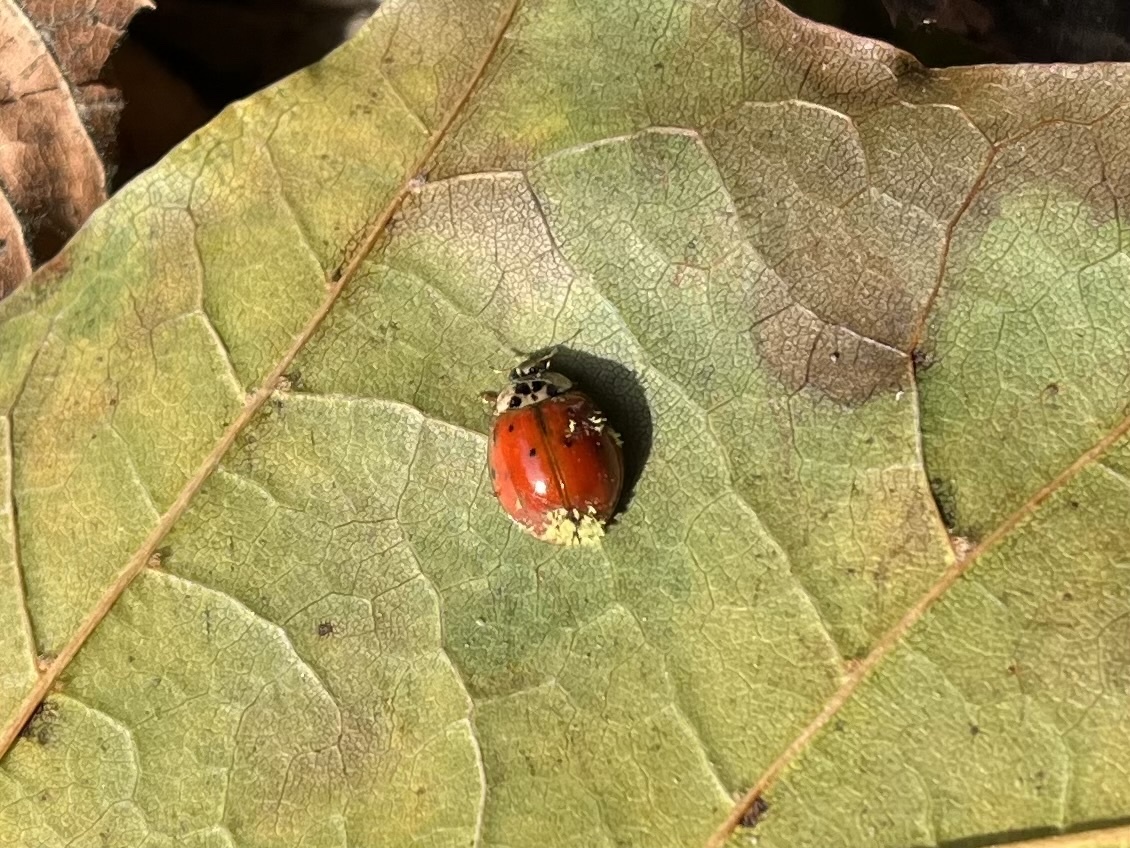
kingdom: Fungi
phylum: Ascomycota
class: Laboulbeniomycetes
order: Laboulbeniales
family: Laboulbeniaceae
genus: Hesperomyces
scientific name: Hesperomyces harmoniae
